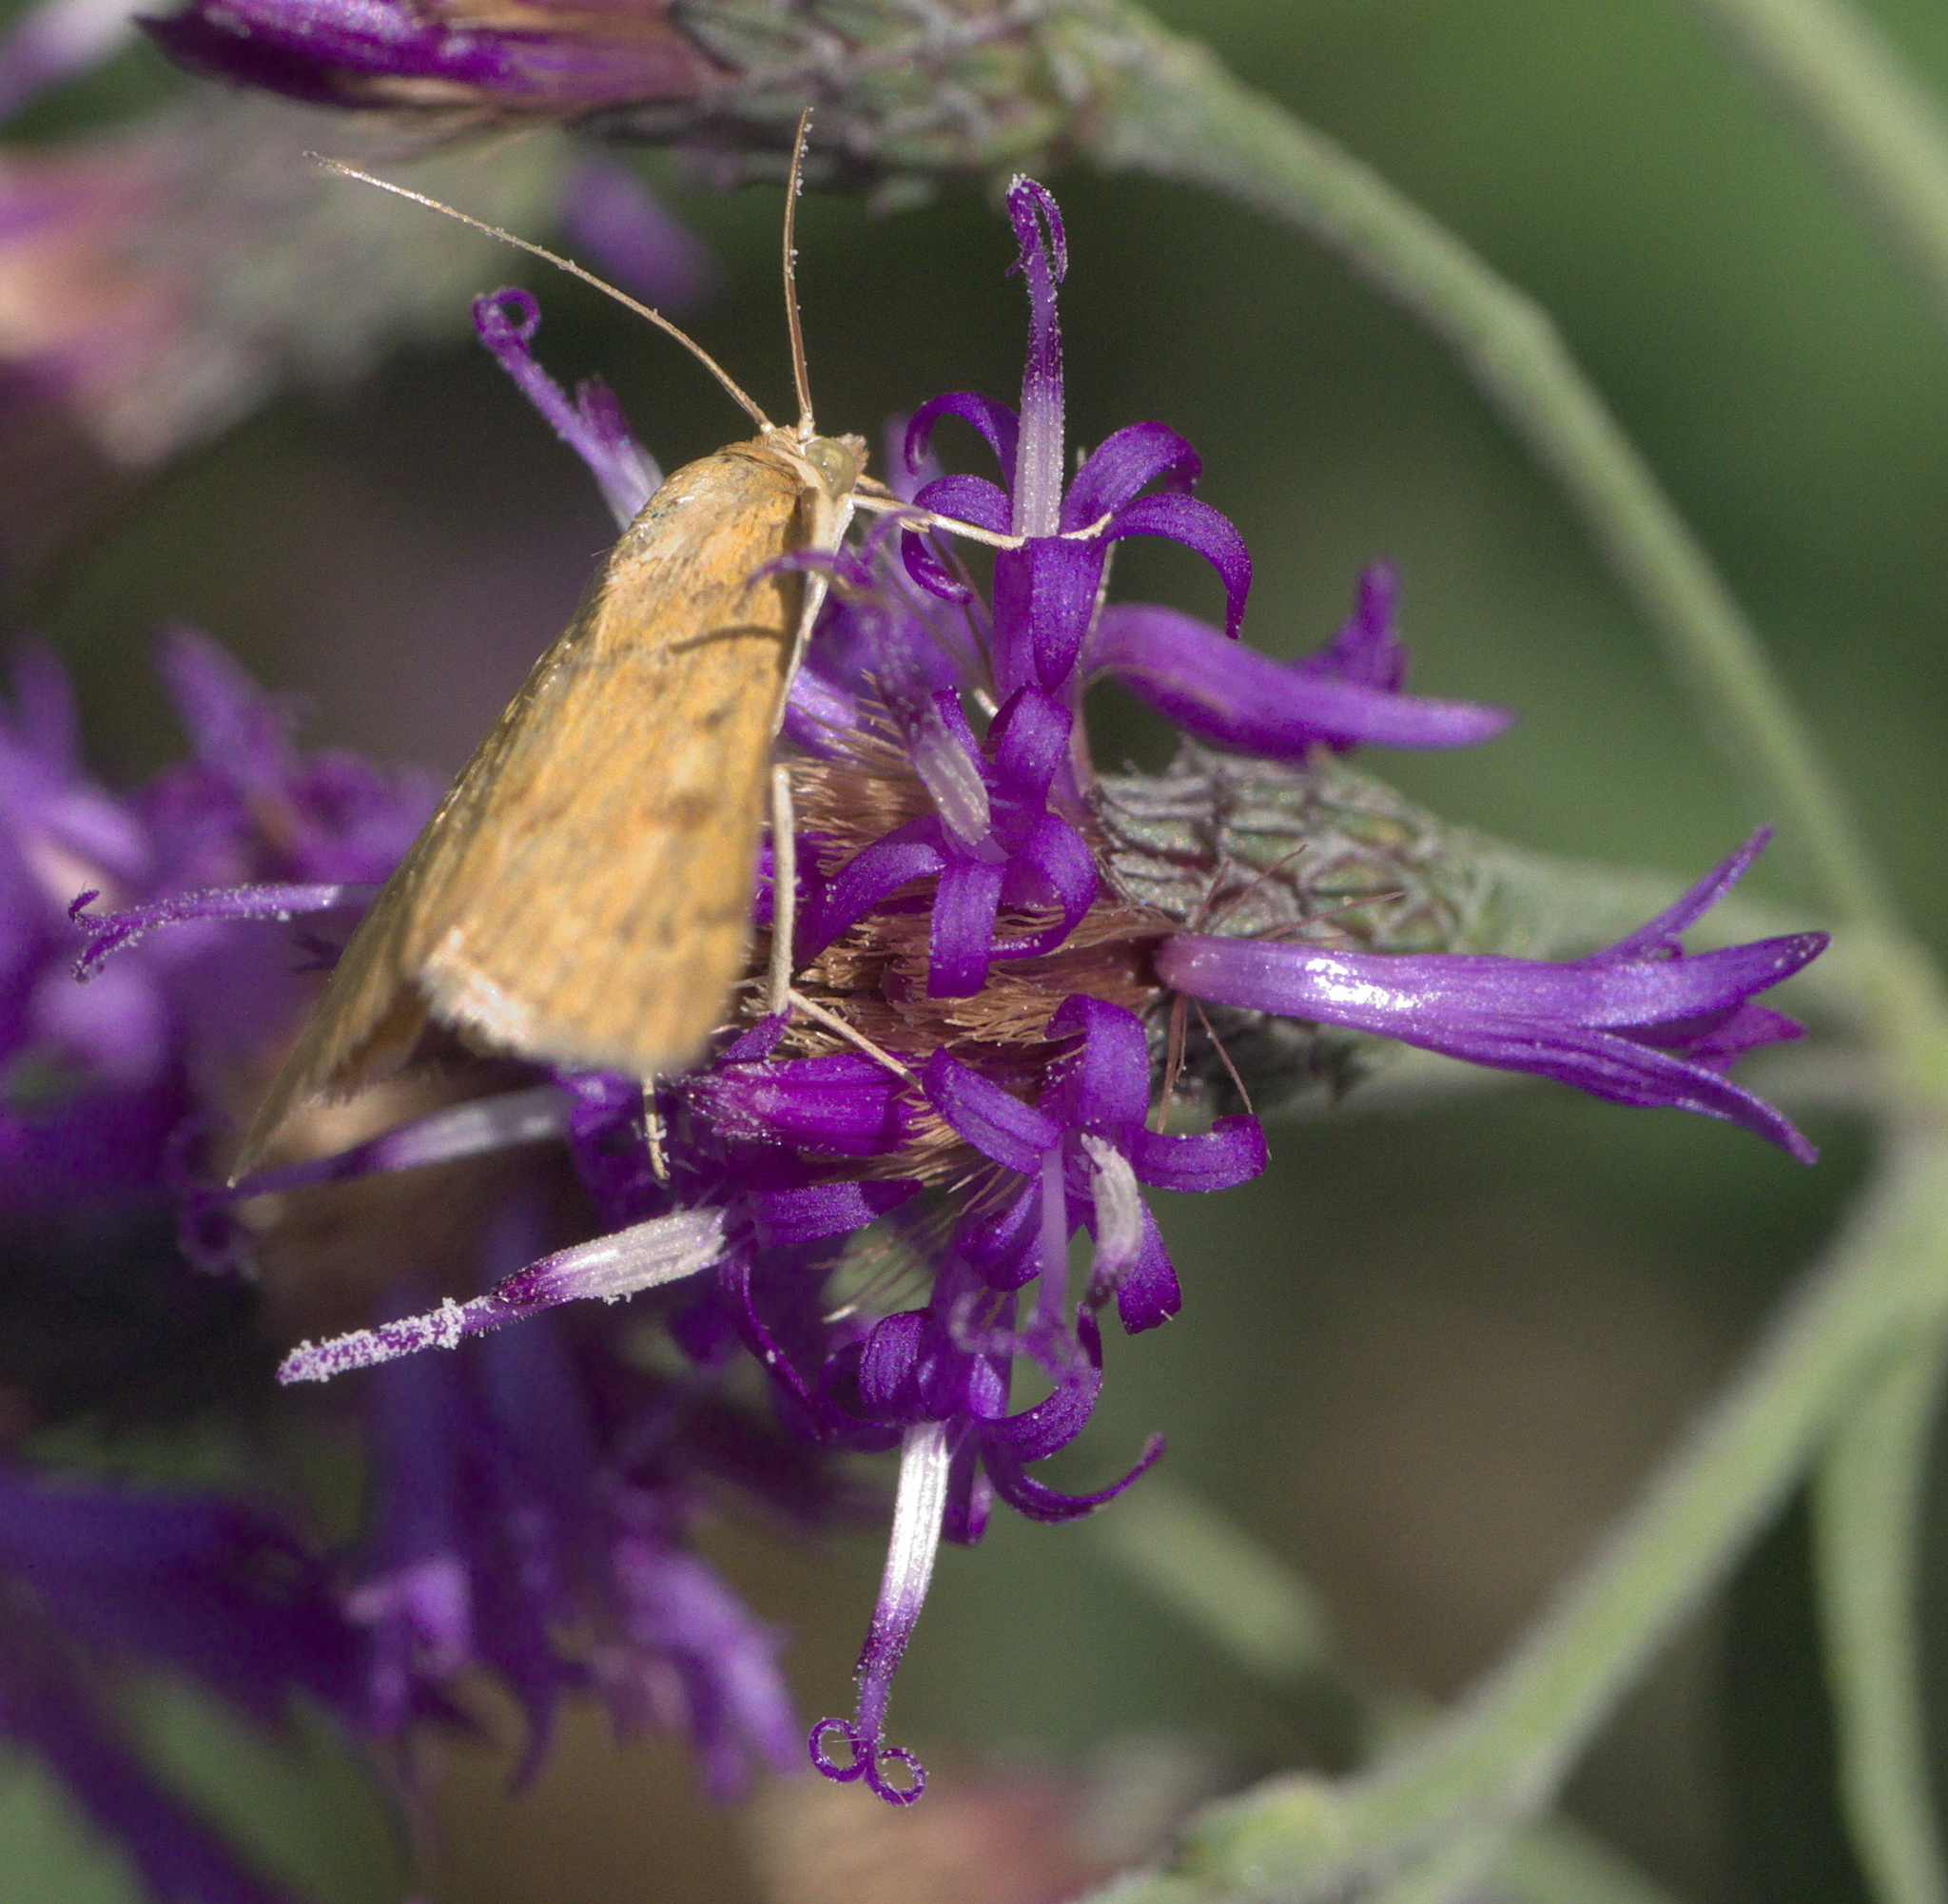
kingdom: Animalia
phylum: Arthropoda
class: Insecta
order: Lepidoptera
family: Crambidae
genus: Achyra
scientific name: Achyra rantalis
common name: Garden webworm
